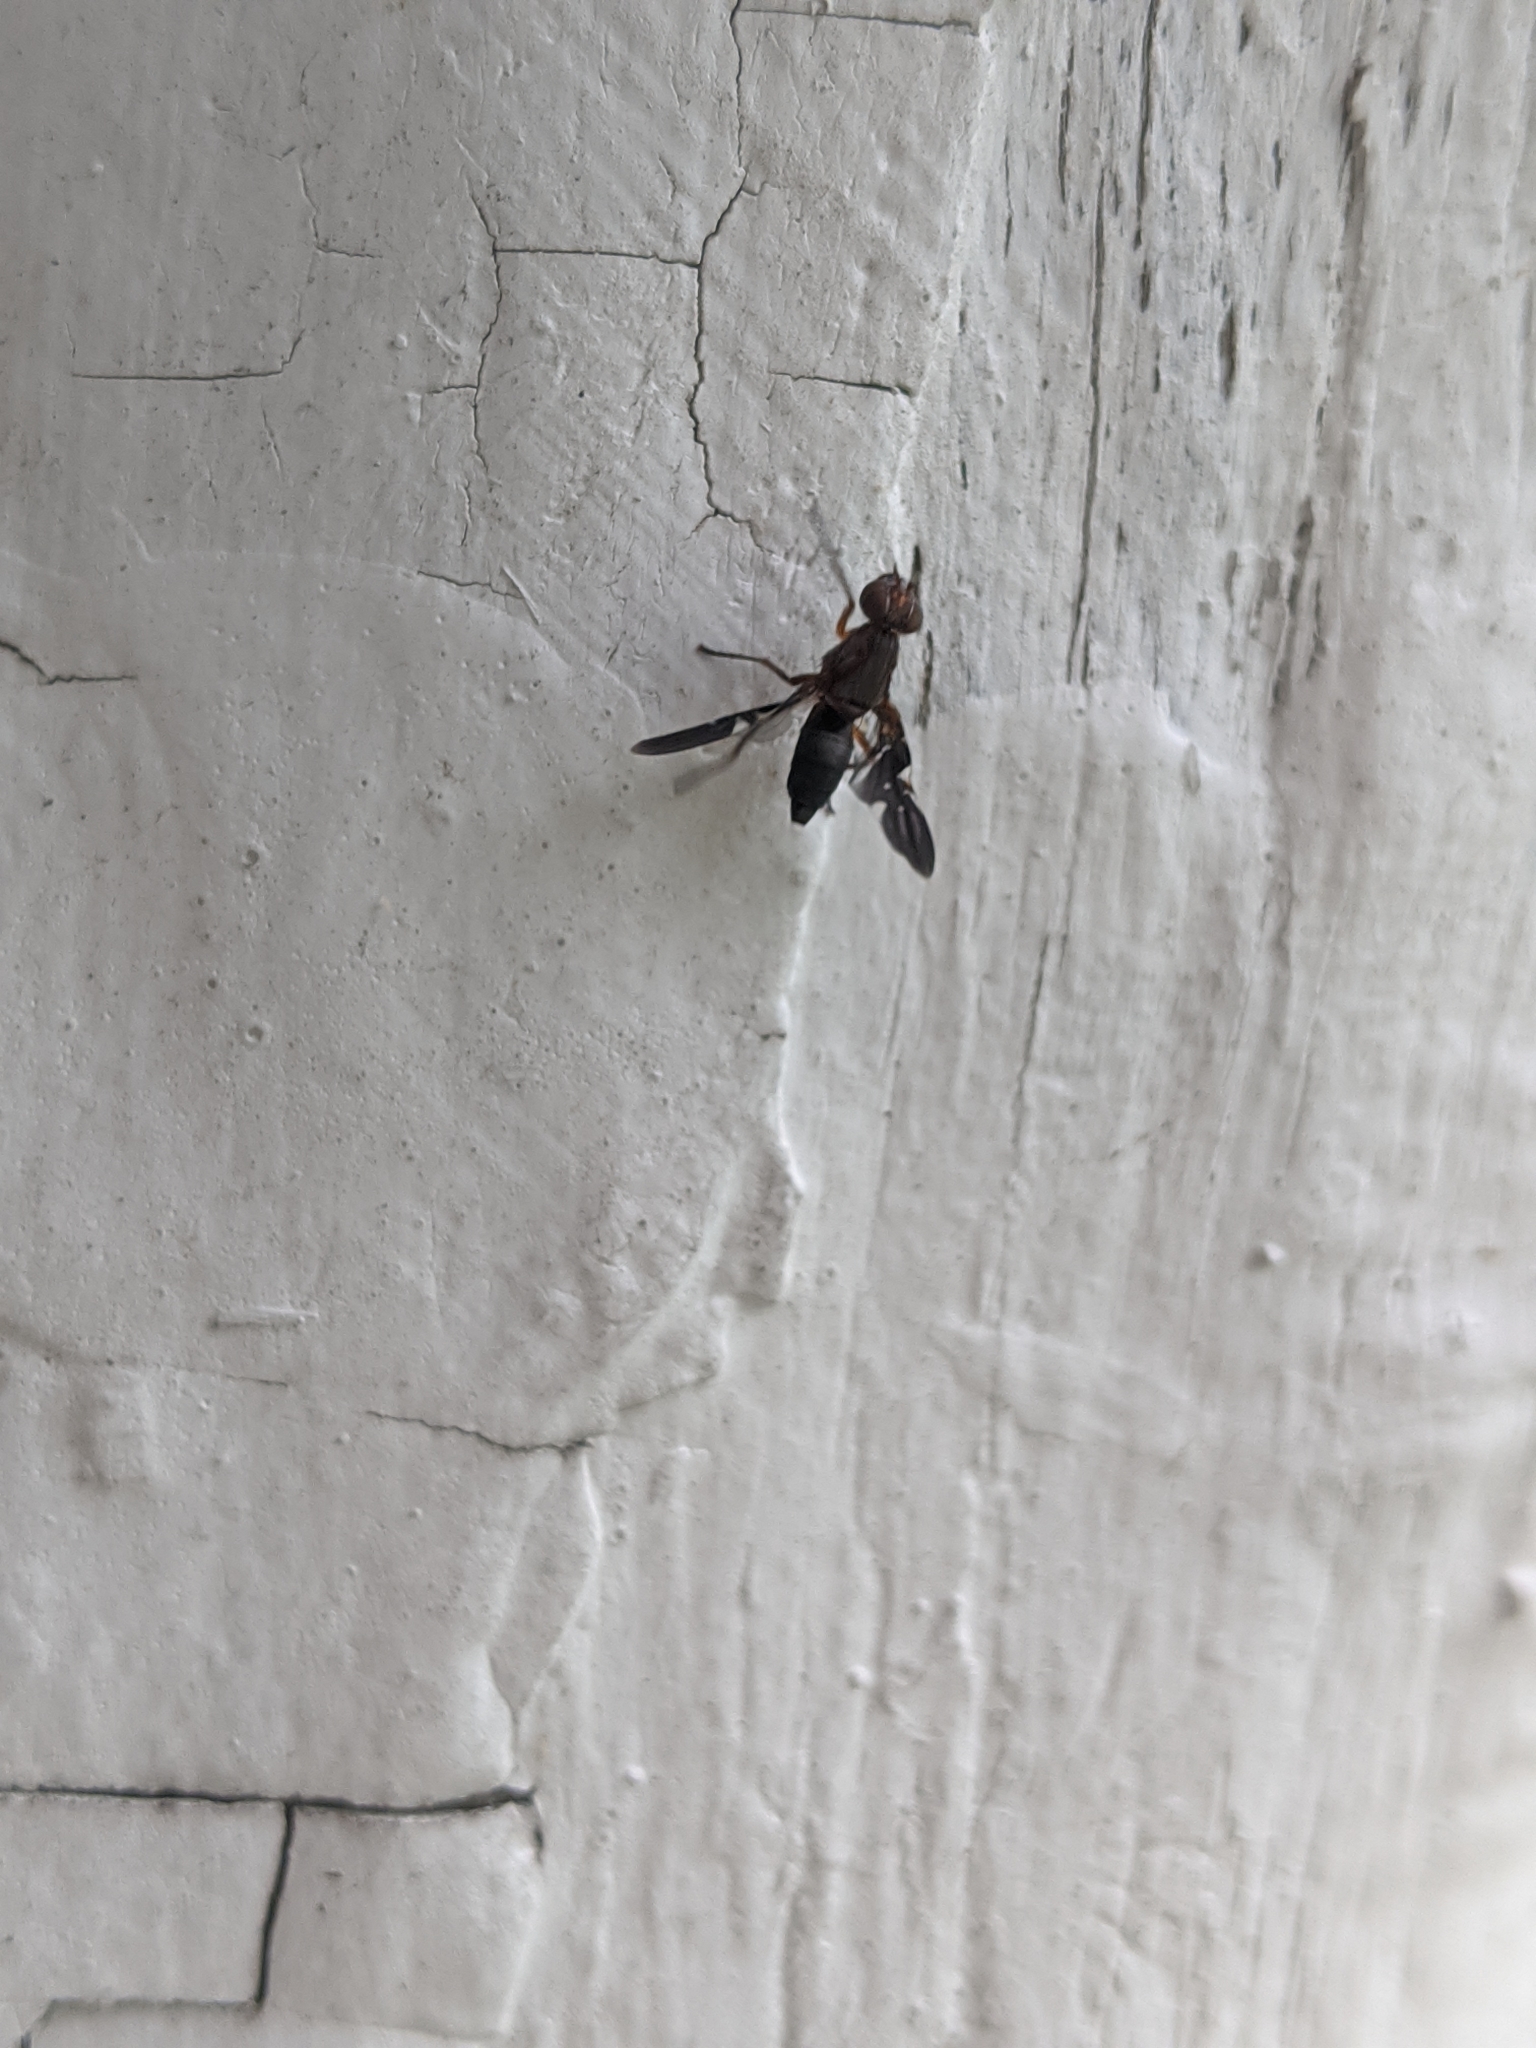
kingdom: Animalia
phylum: Arthropoda
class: Insecta
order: Diptera
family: Ulidiidae
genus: Delphinia
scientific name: Delphinia picta
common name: Common picture-winged fly
